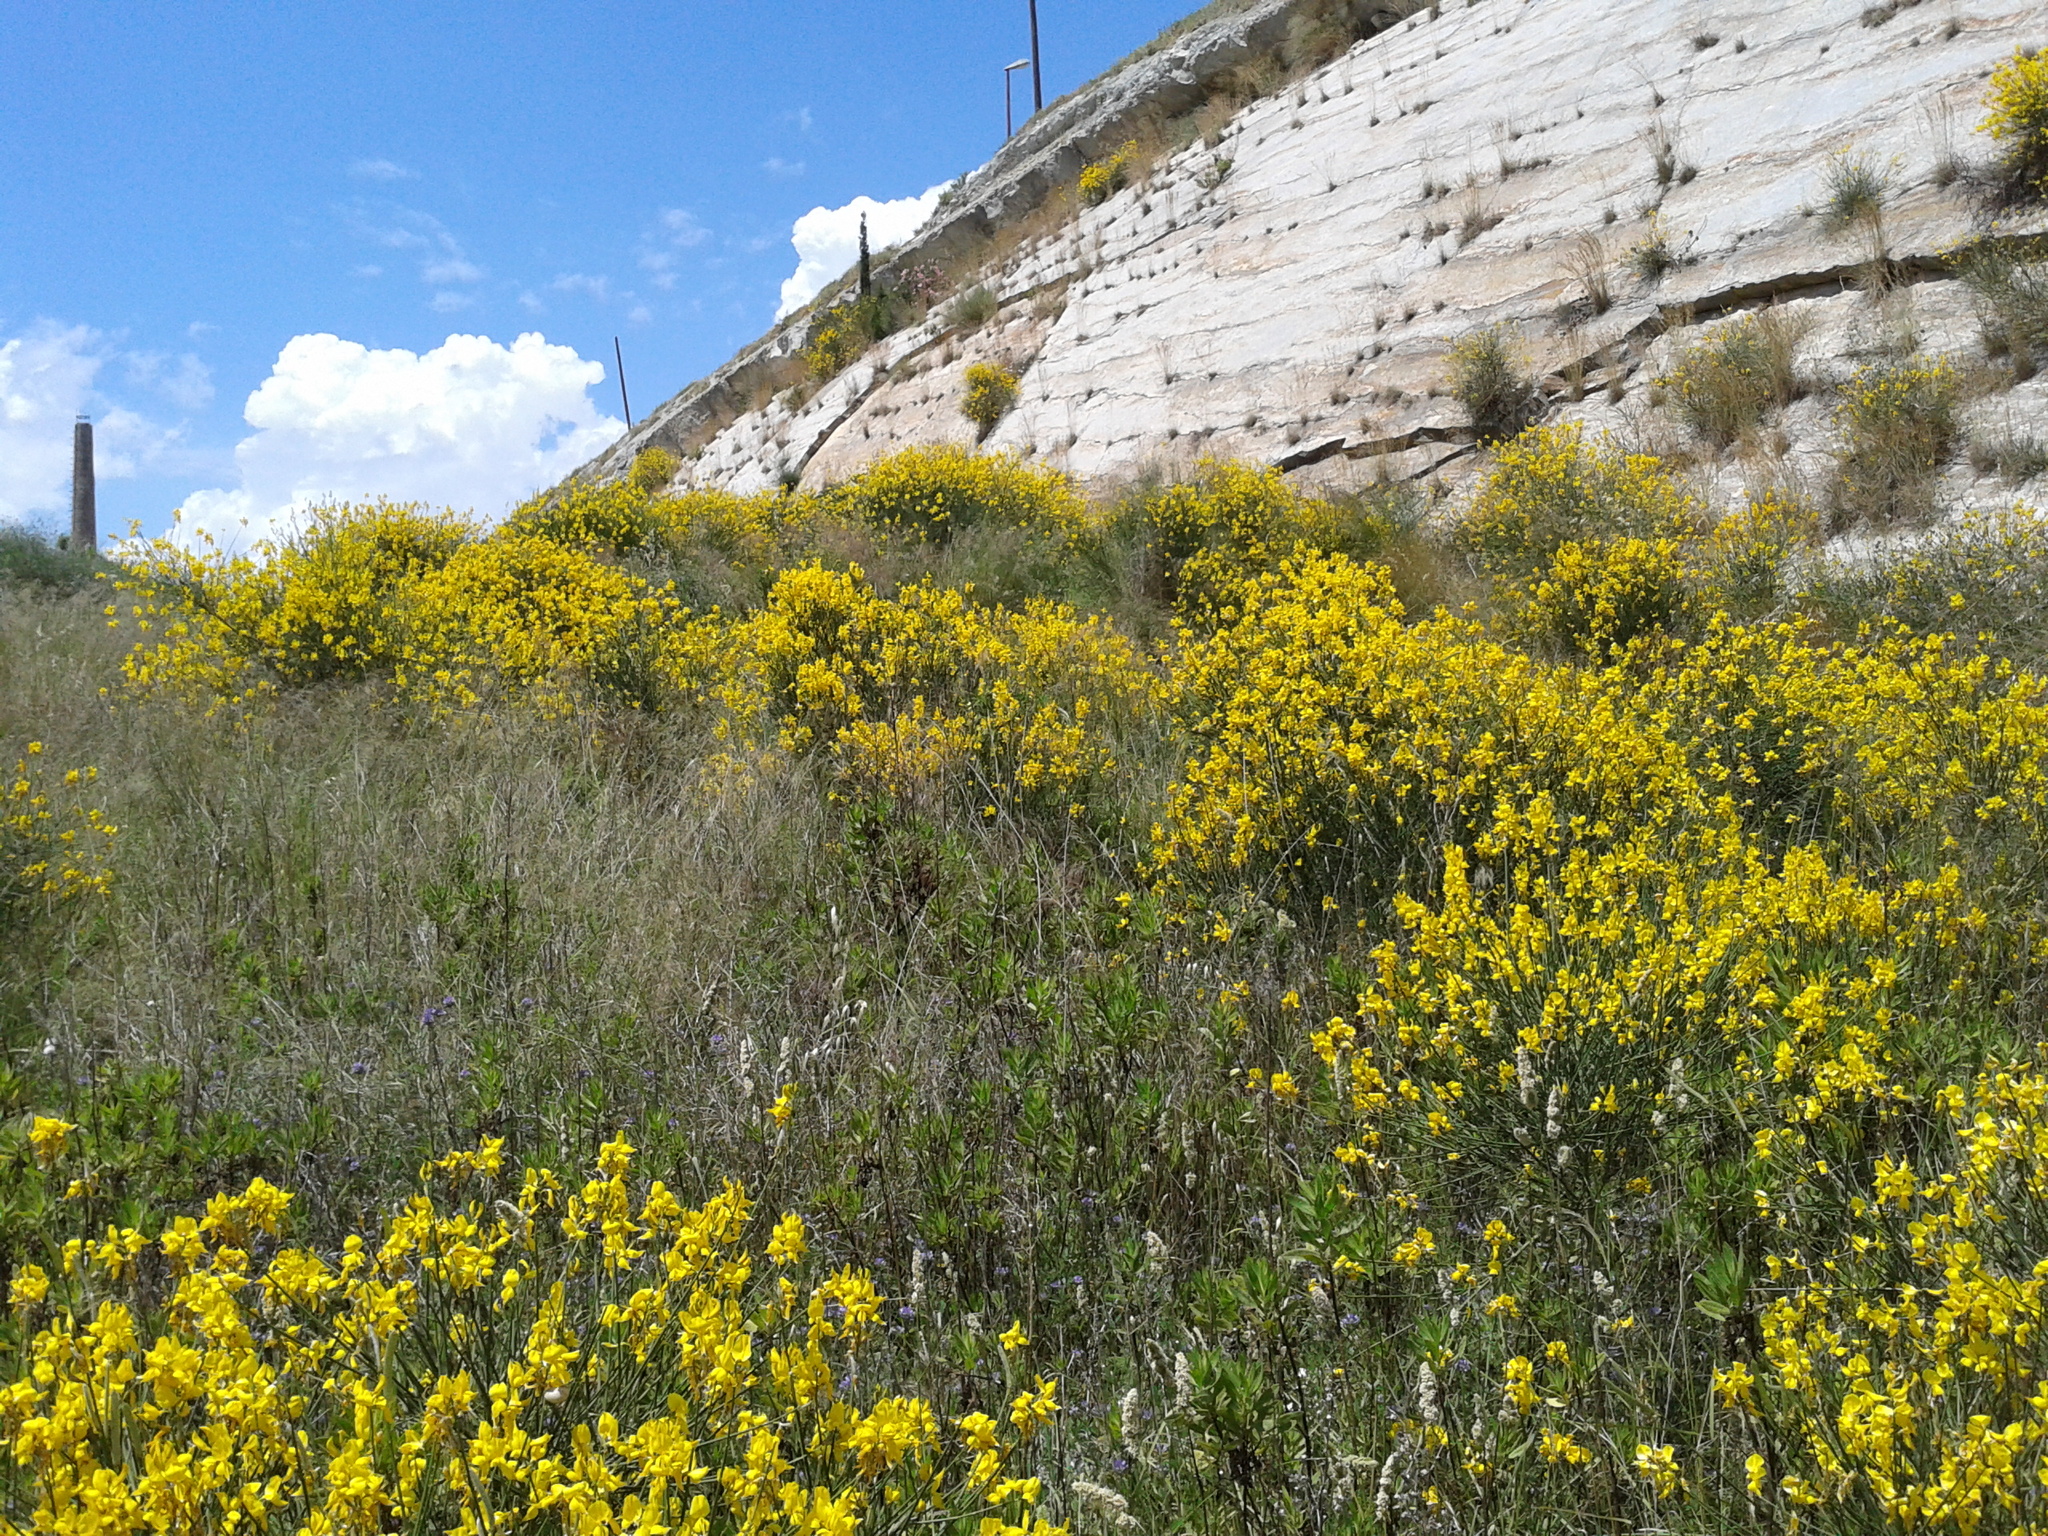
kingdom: Plantae
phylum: Tracheophyta
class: Magnoliopsida
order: Fabales
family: Fabaceae
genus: Spartium
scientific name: Spartium junceum
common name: Spanish broom
